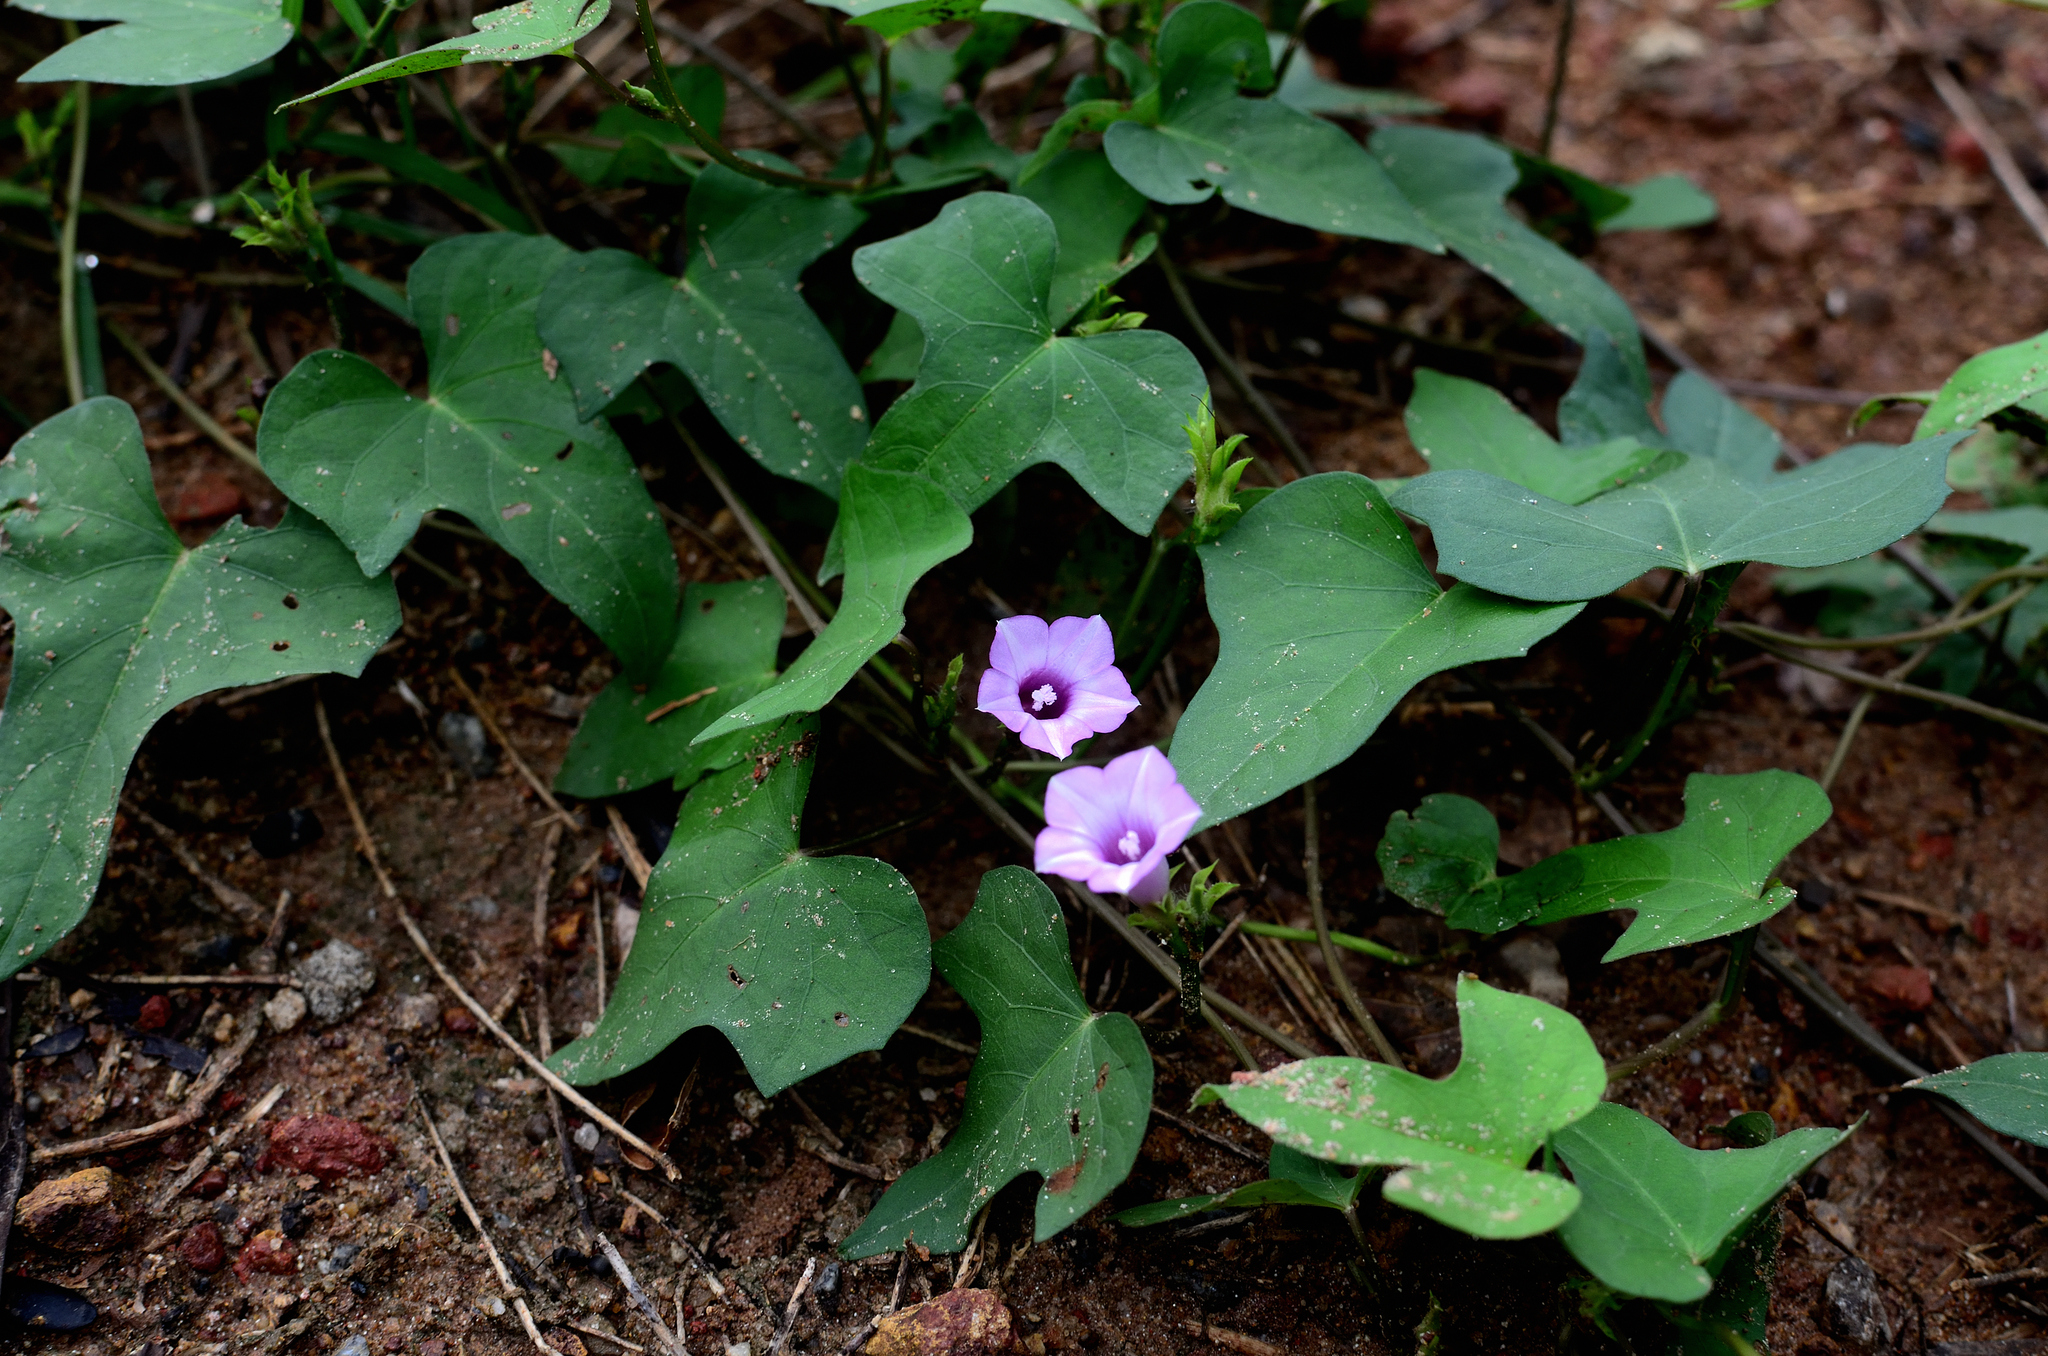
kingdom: Plantae
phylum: Tracheophyta
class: Magnoliopsida
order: Solanales
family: Convolvulaceae
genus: Ipomoea
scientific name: Ipomoea triloba
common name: Little-bell
